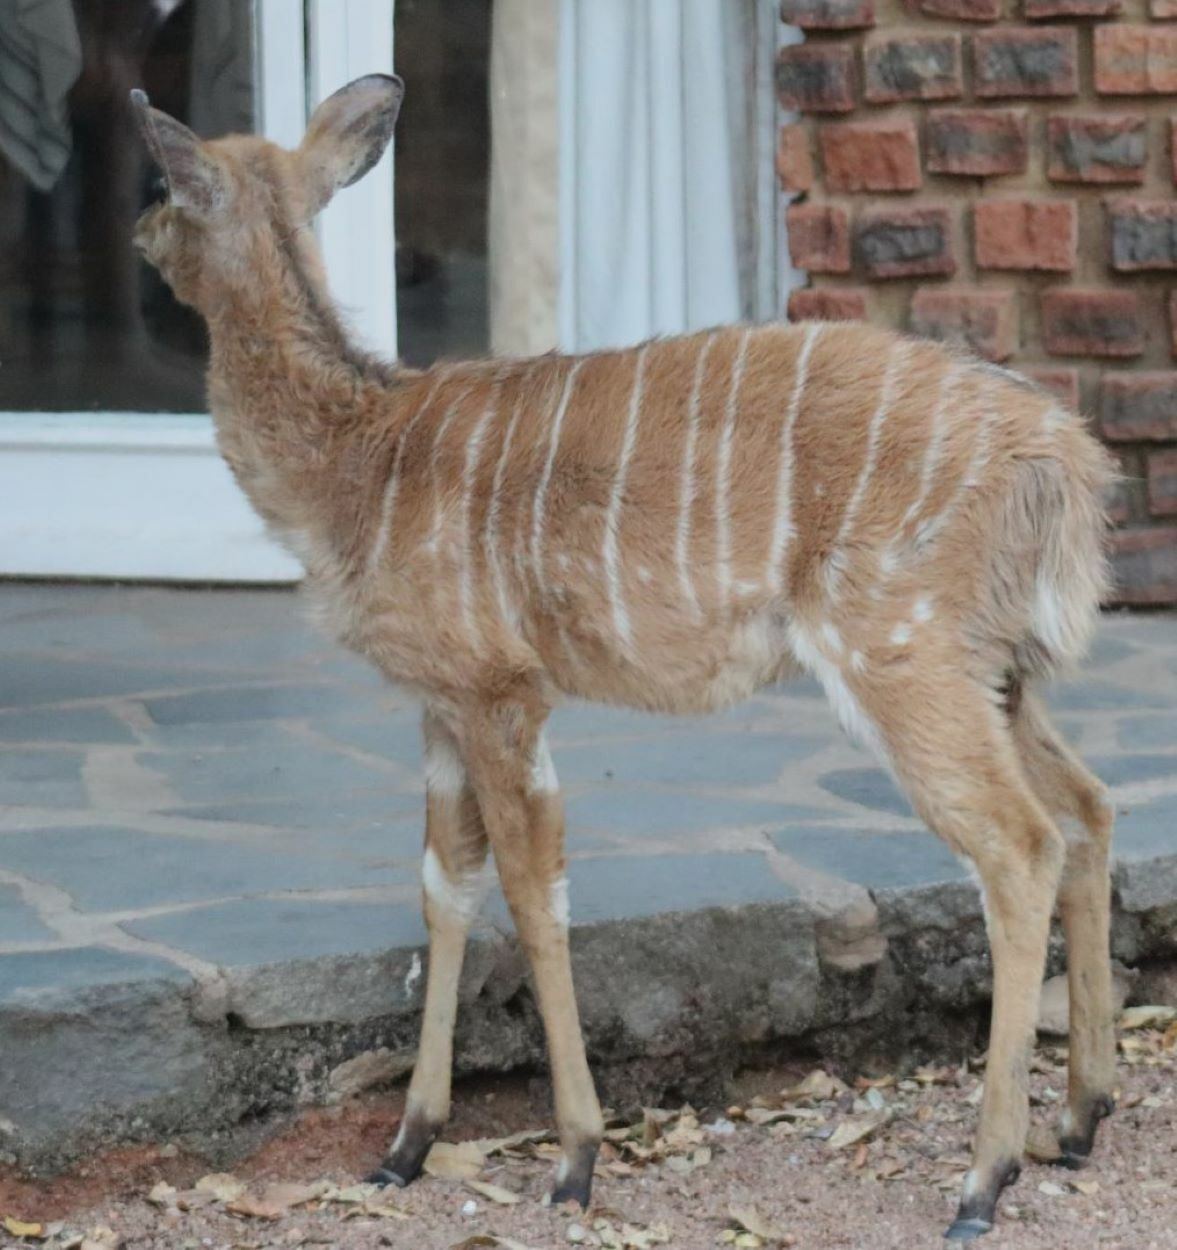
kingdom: Animalia
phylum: Chordata
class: Mammalia
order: Artiodactyla
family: Bovidae
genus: Tragelaphus
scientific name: Tragelaphus angasii
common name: Nyala
